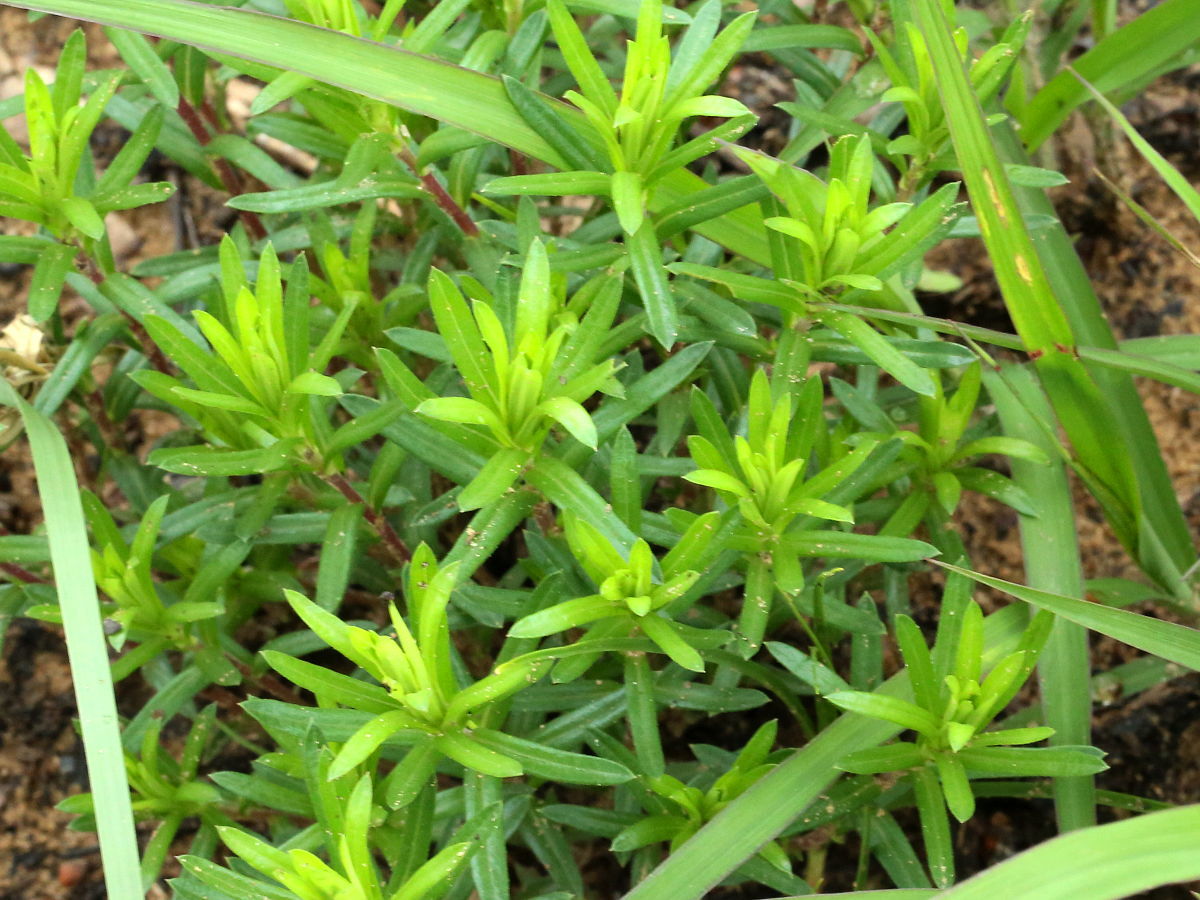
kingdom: Plantae
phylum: Tracheophyta
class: Magnoliopsida
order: Asterales
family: Asteraceae
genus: Ionactis
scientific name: Ionactis linariifolia
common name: Flax-leaf aster
